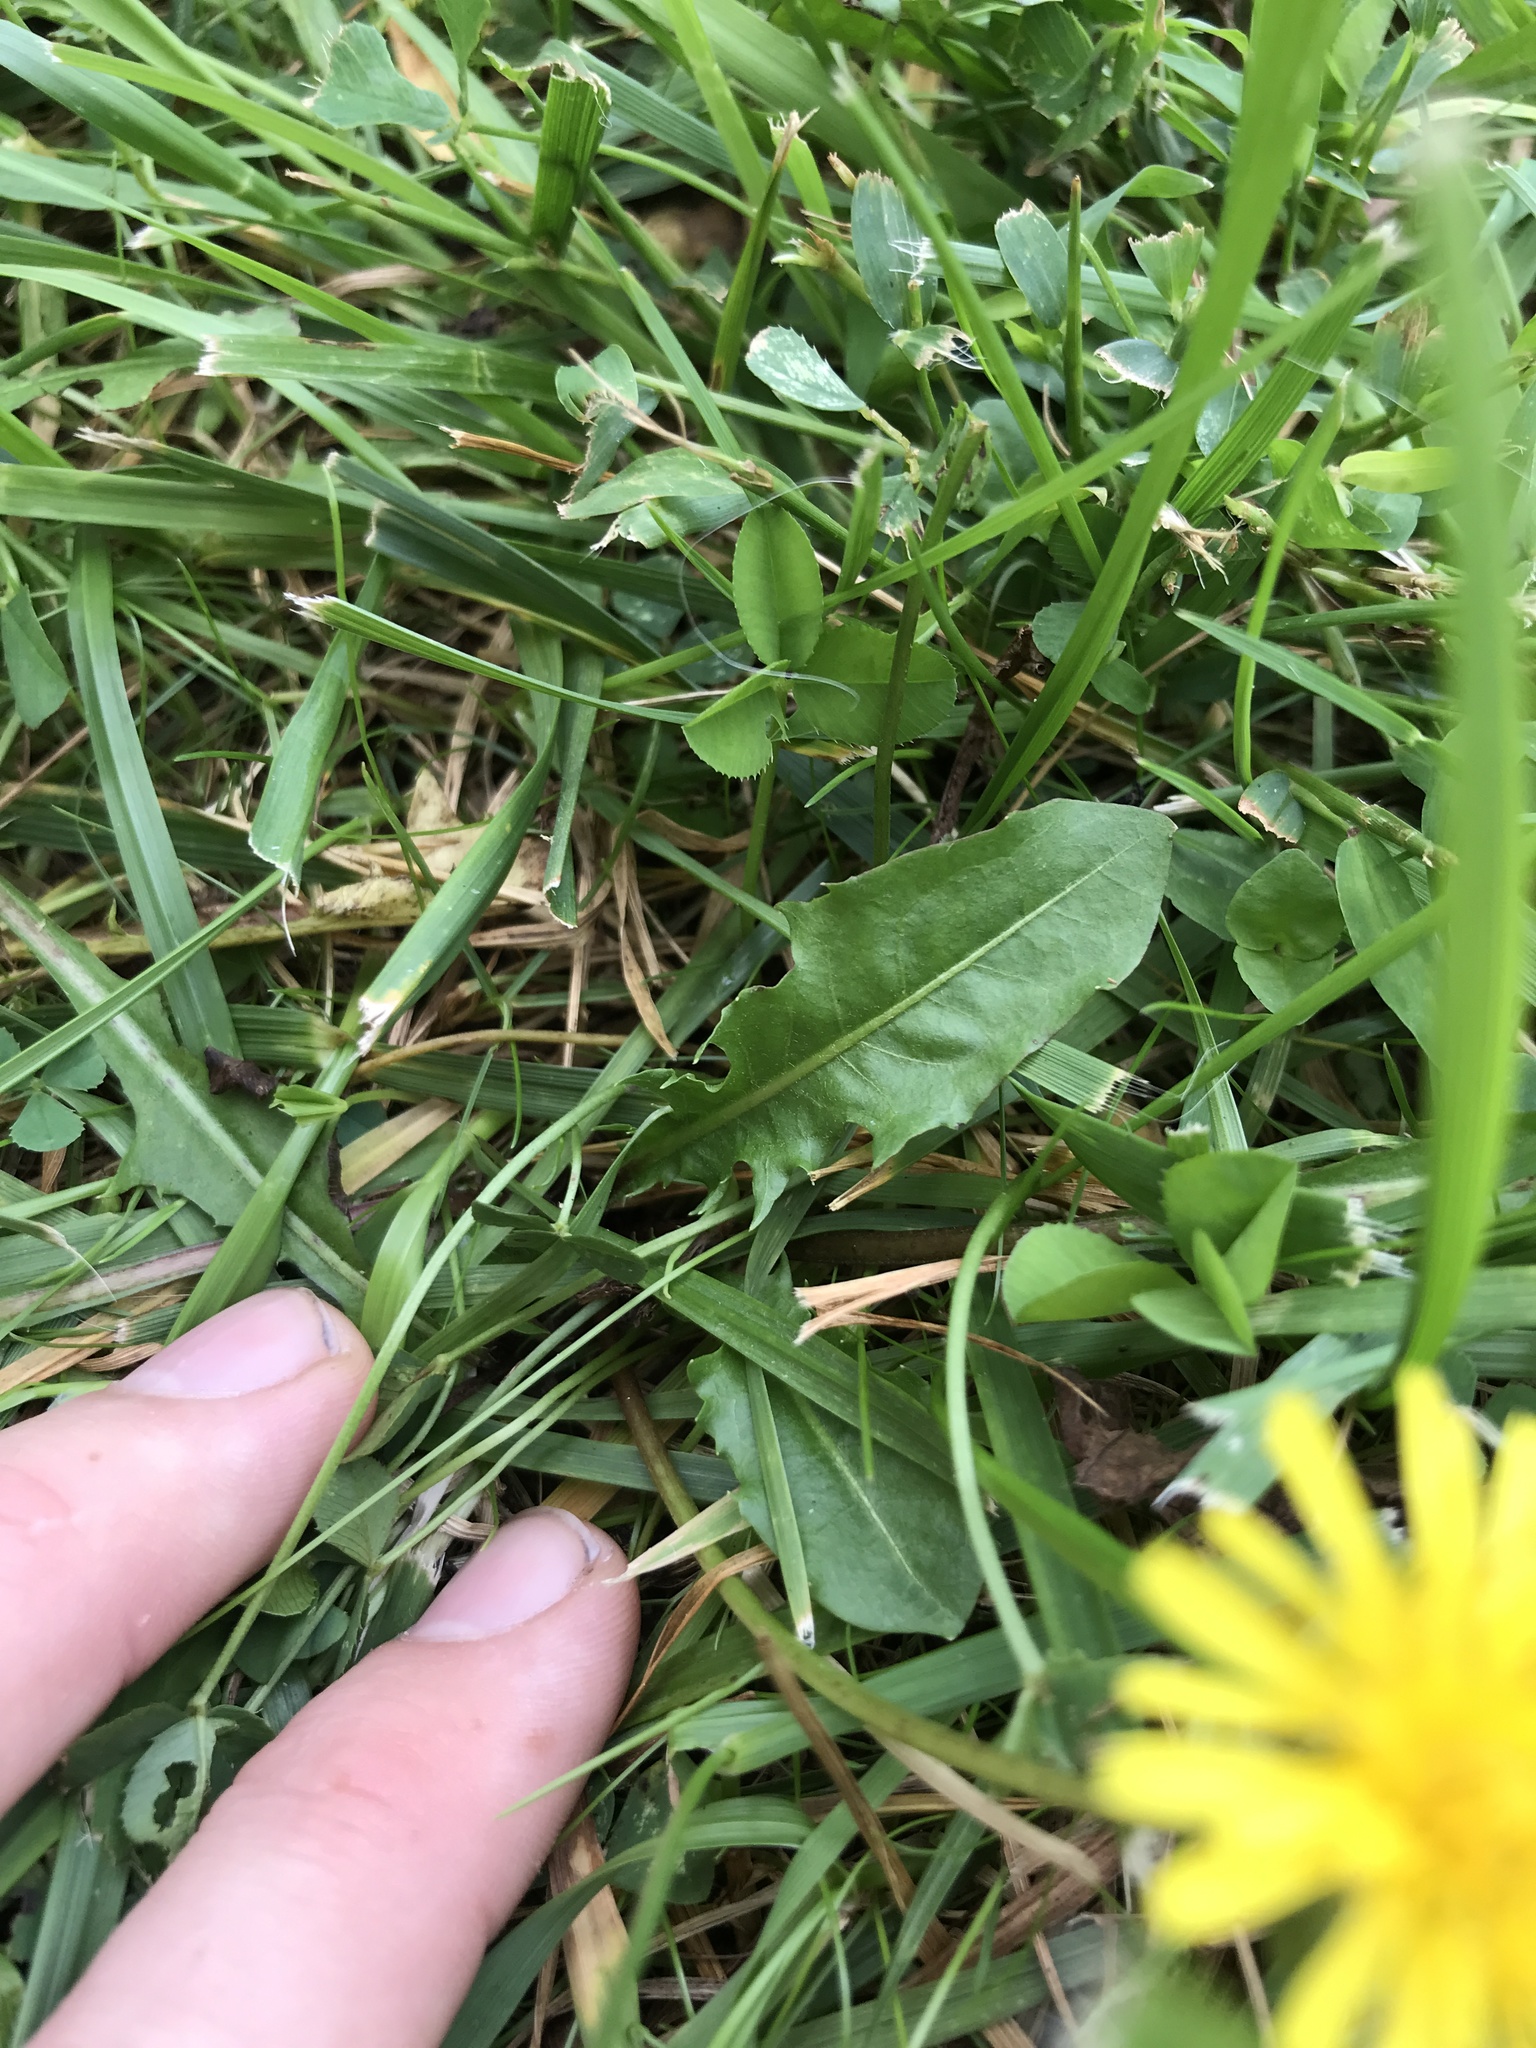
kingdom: Plantae
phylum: Tracheophyta
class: Magnoliopsida
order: Asterales
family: Asteraceae
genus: Taraxacum
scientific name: Taraxacum officinale
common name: Common dandelion
